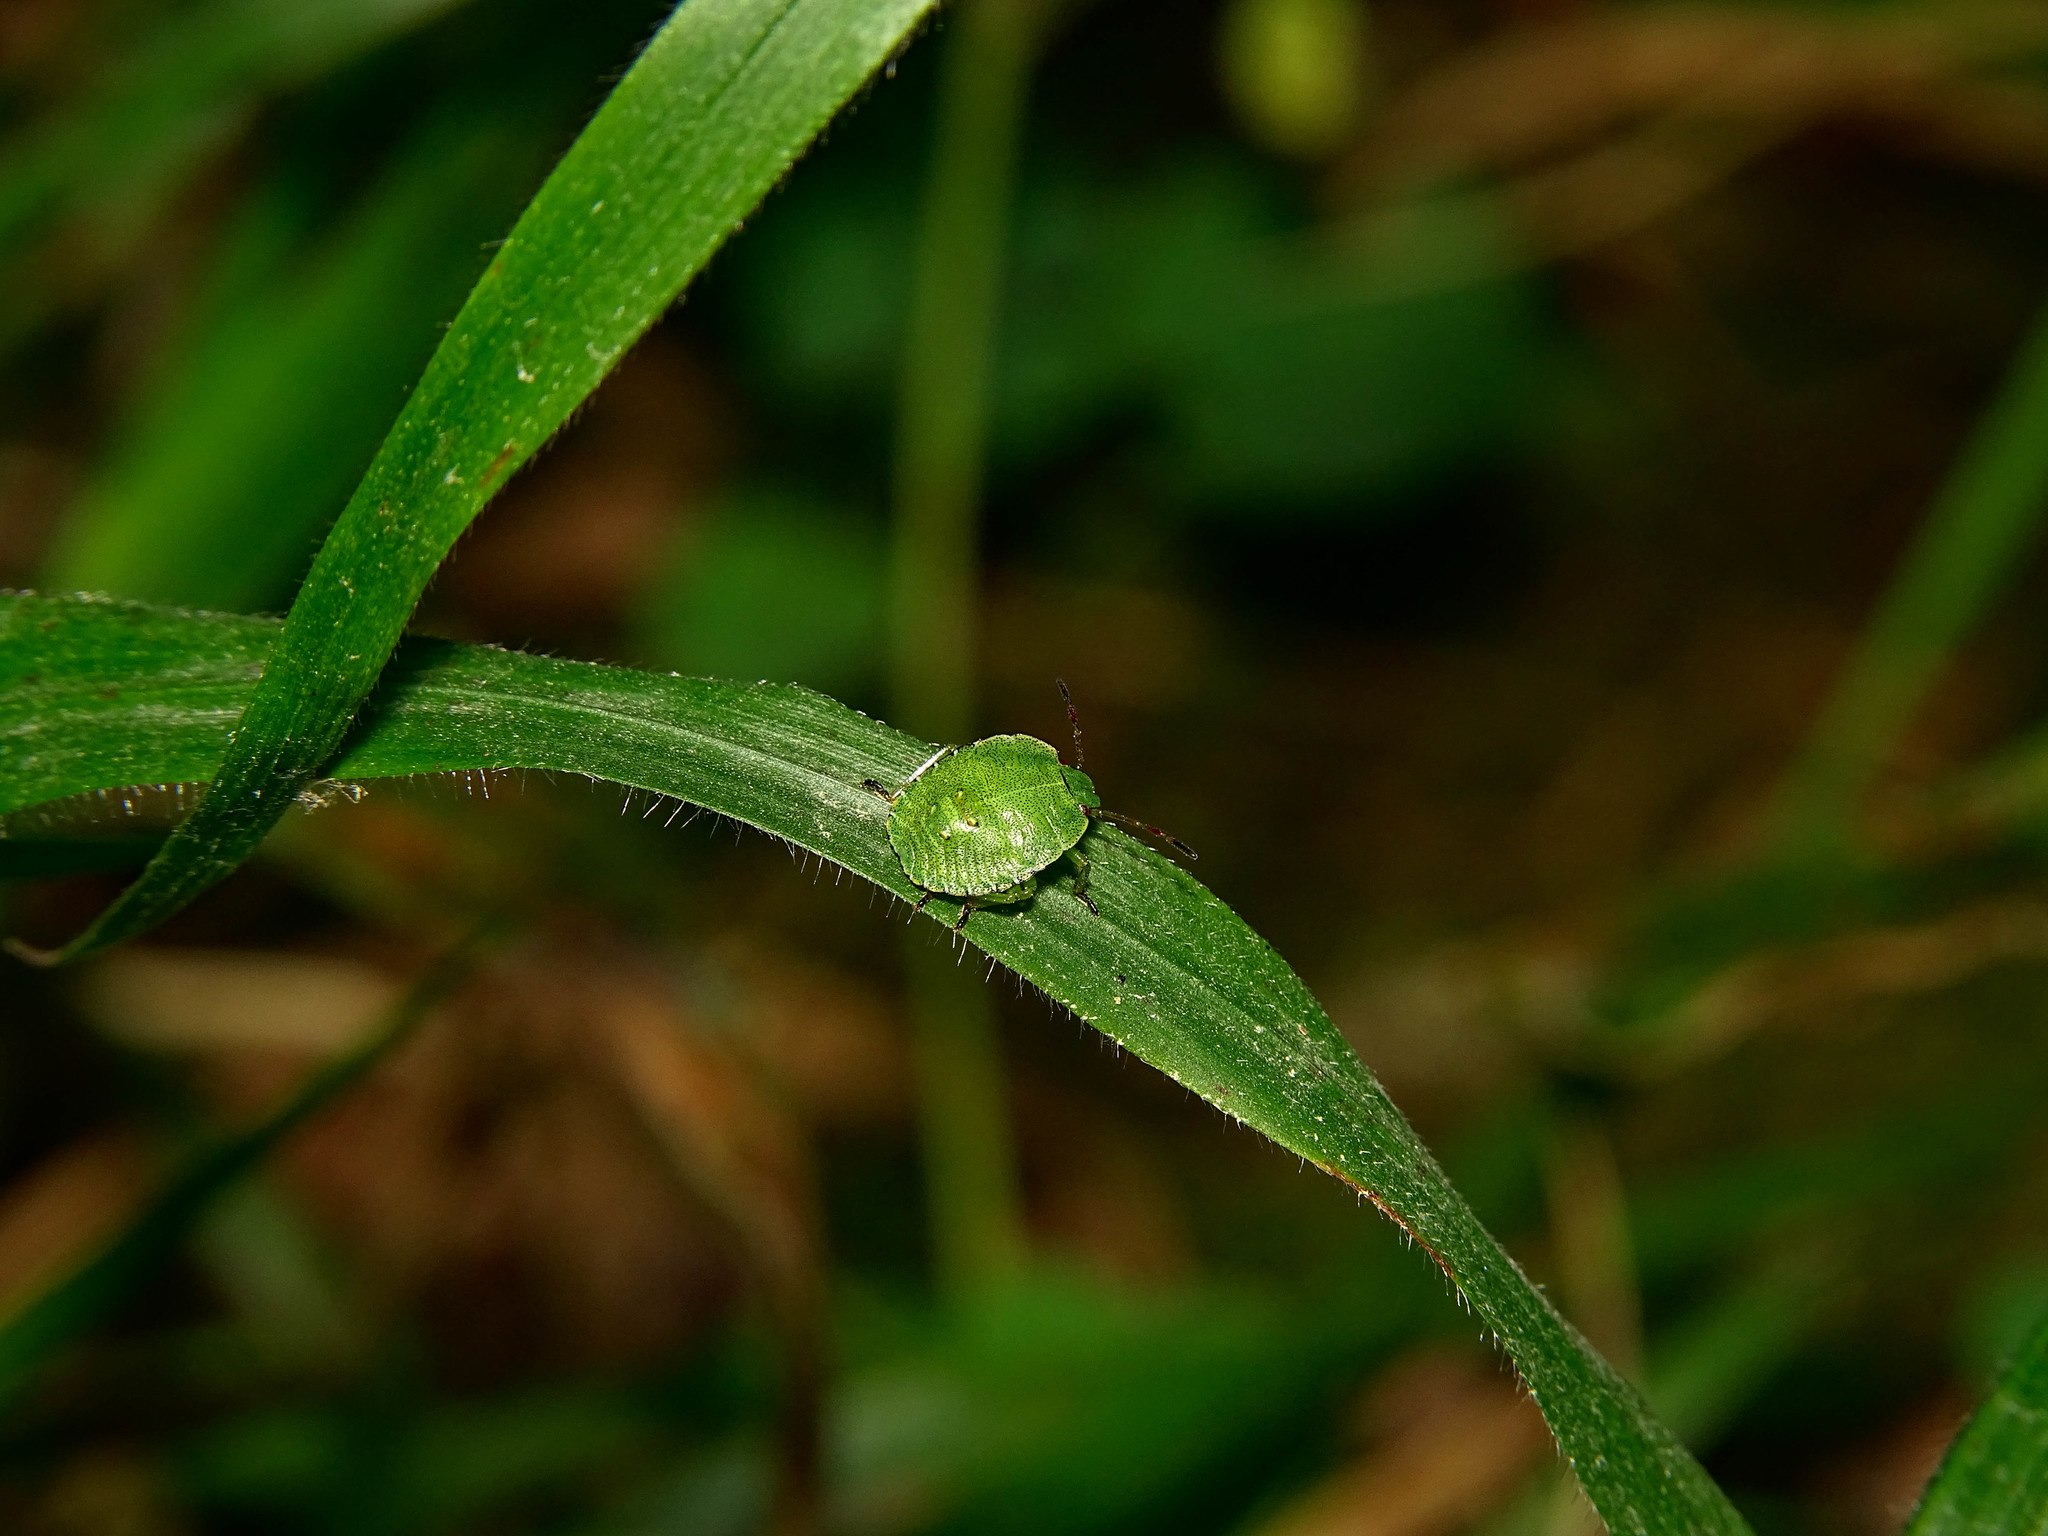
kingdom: Animalia
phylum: Arthropoda
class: Insecta
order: Hemiptera
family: Pentatomidae
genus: Palomena
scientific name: Palomena prasina
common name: Green shieldbug
